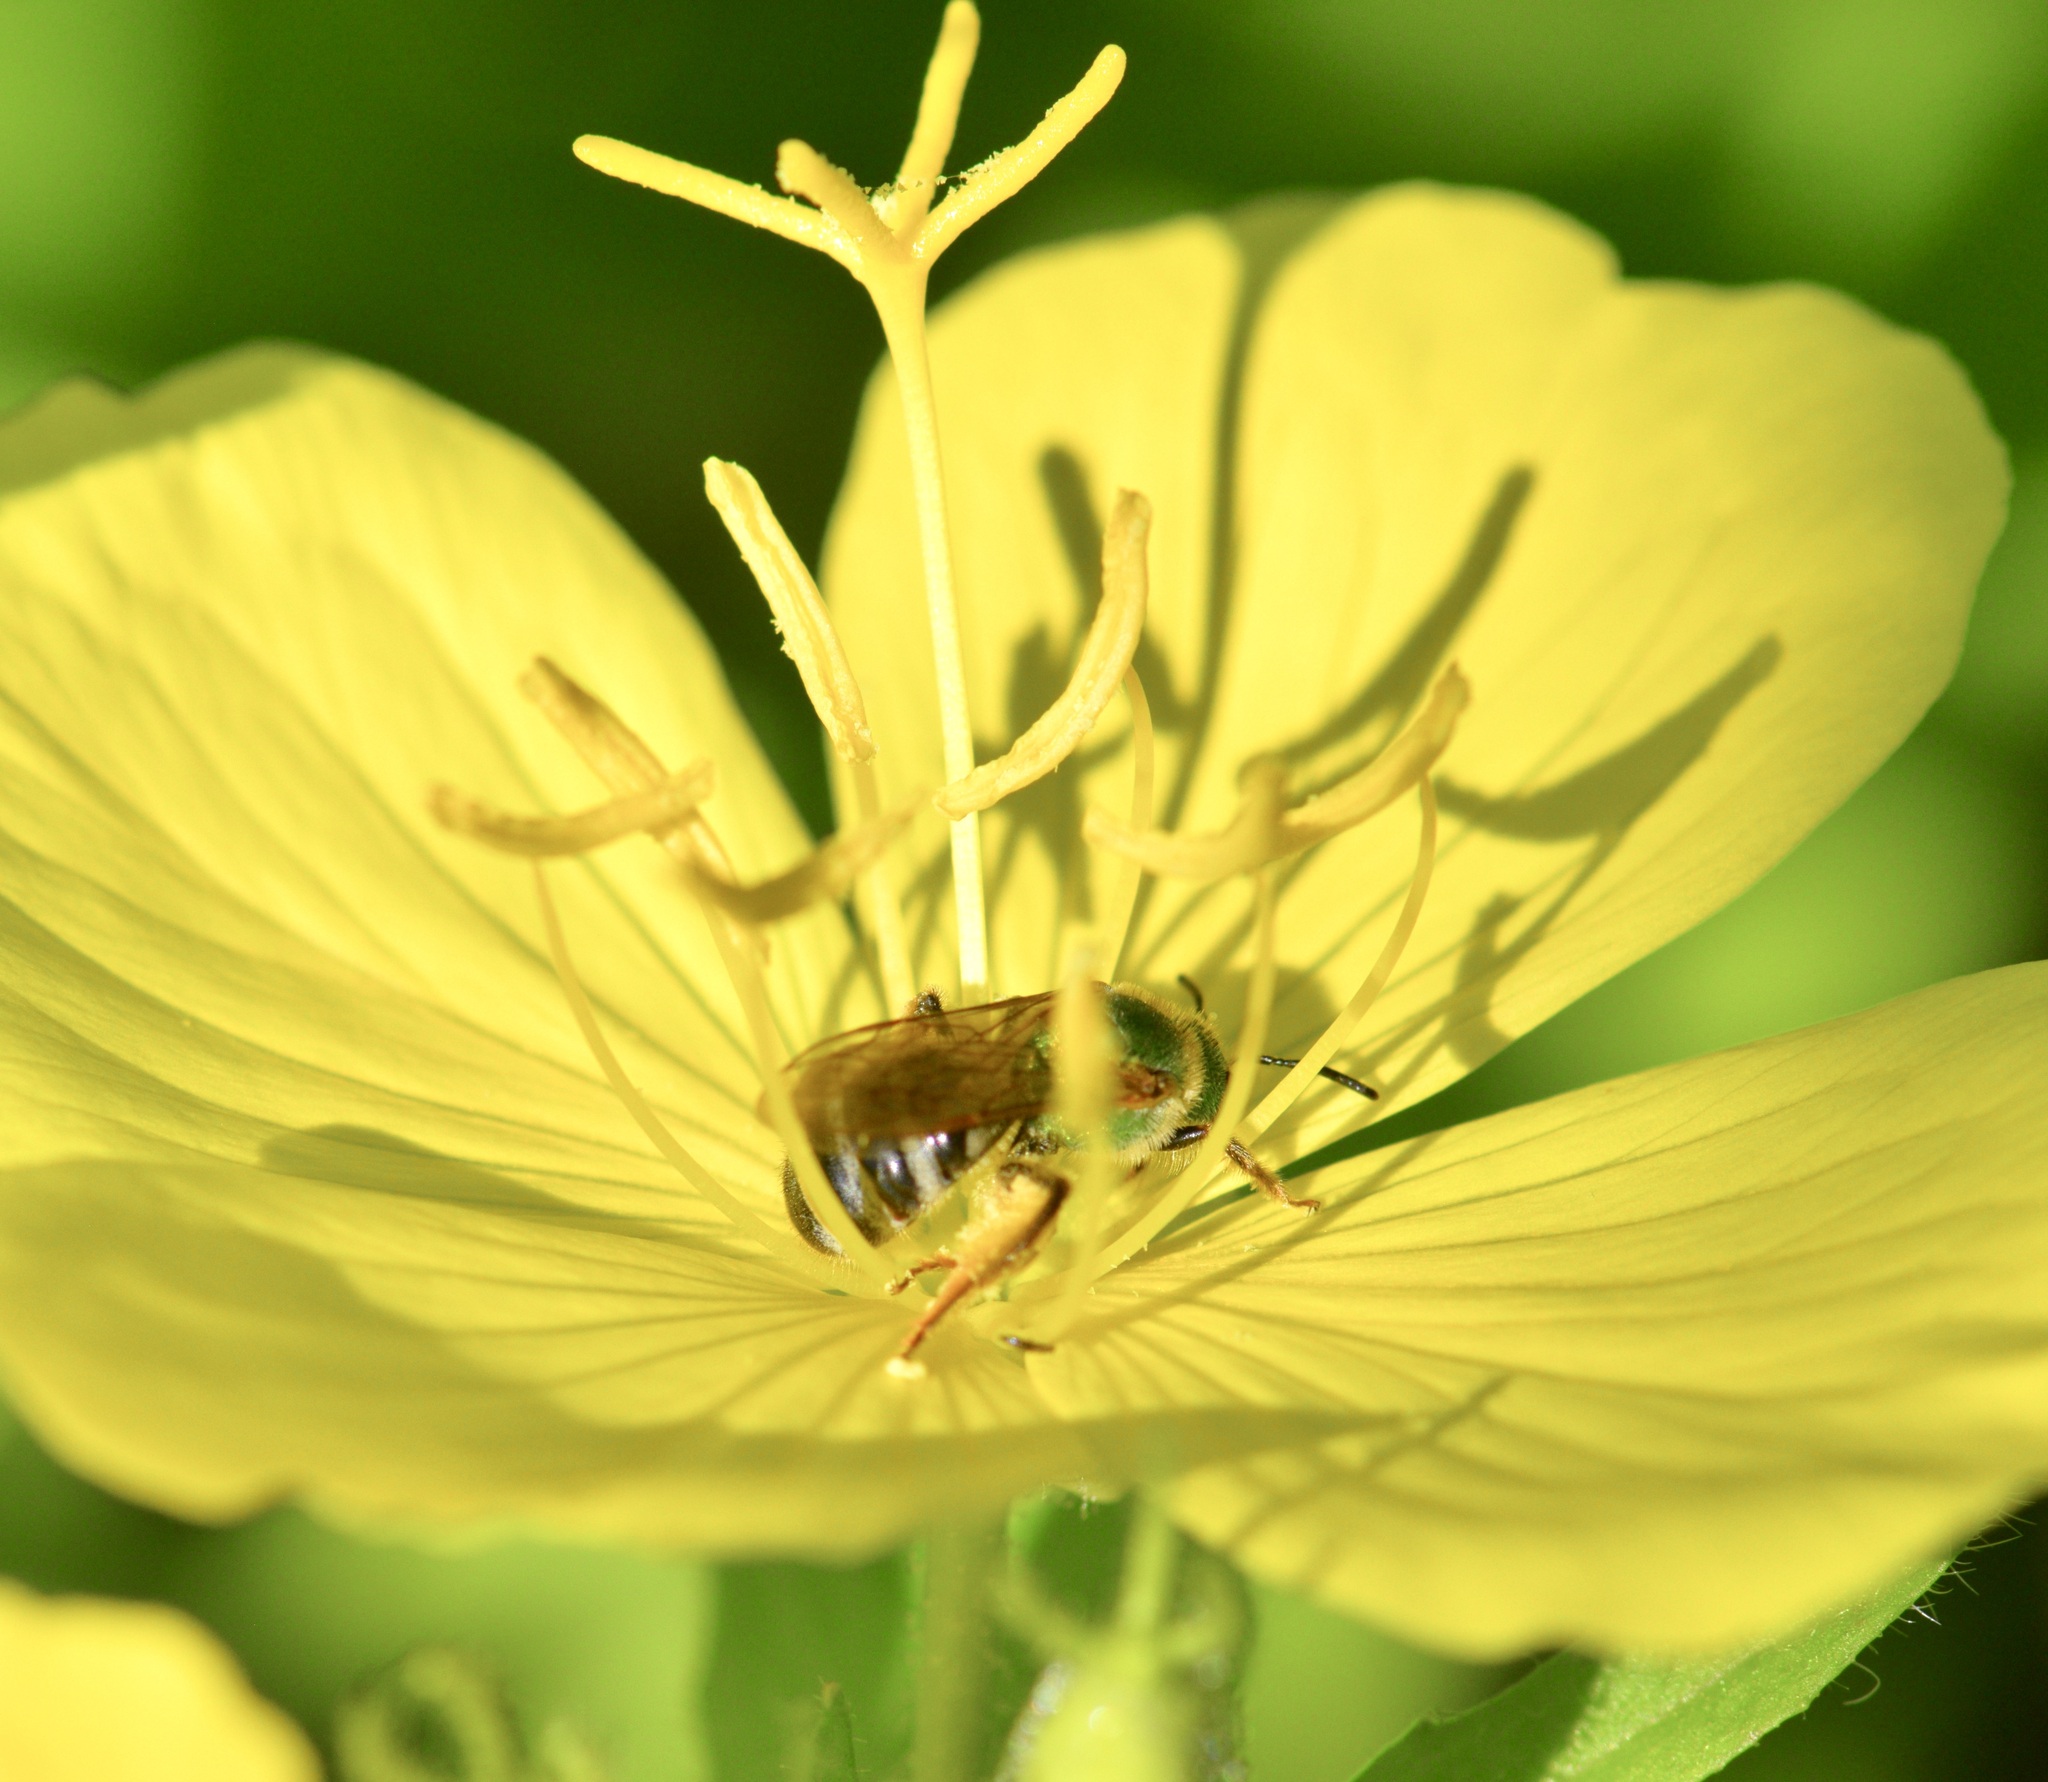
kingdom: Animalia
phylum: Arthropoda
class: Insecta
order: Hymenoptera
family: Halictidae
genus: Agapostemon
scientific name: Agapostemon virescens
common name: Bicolored striped sweat bee
